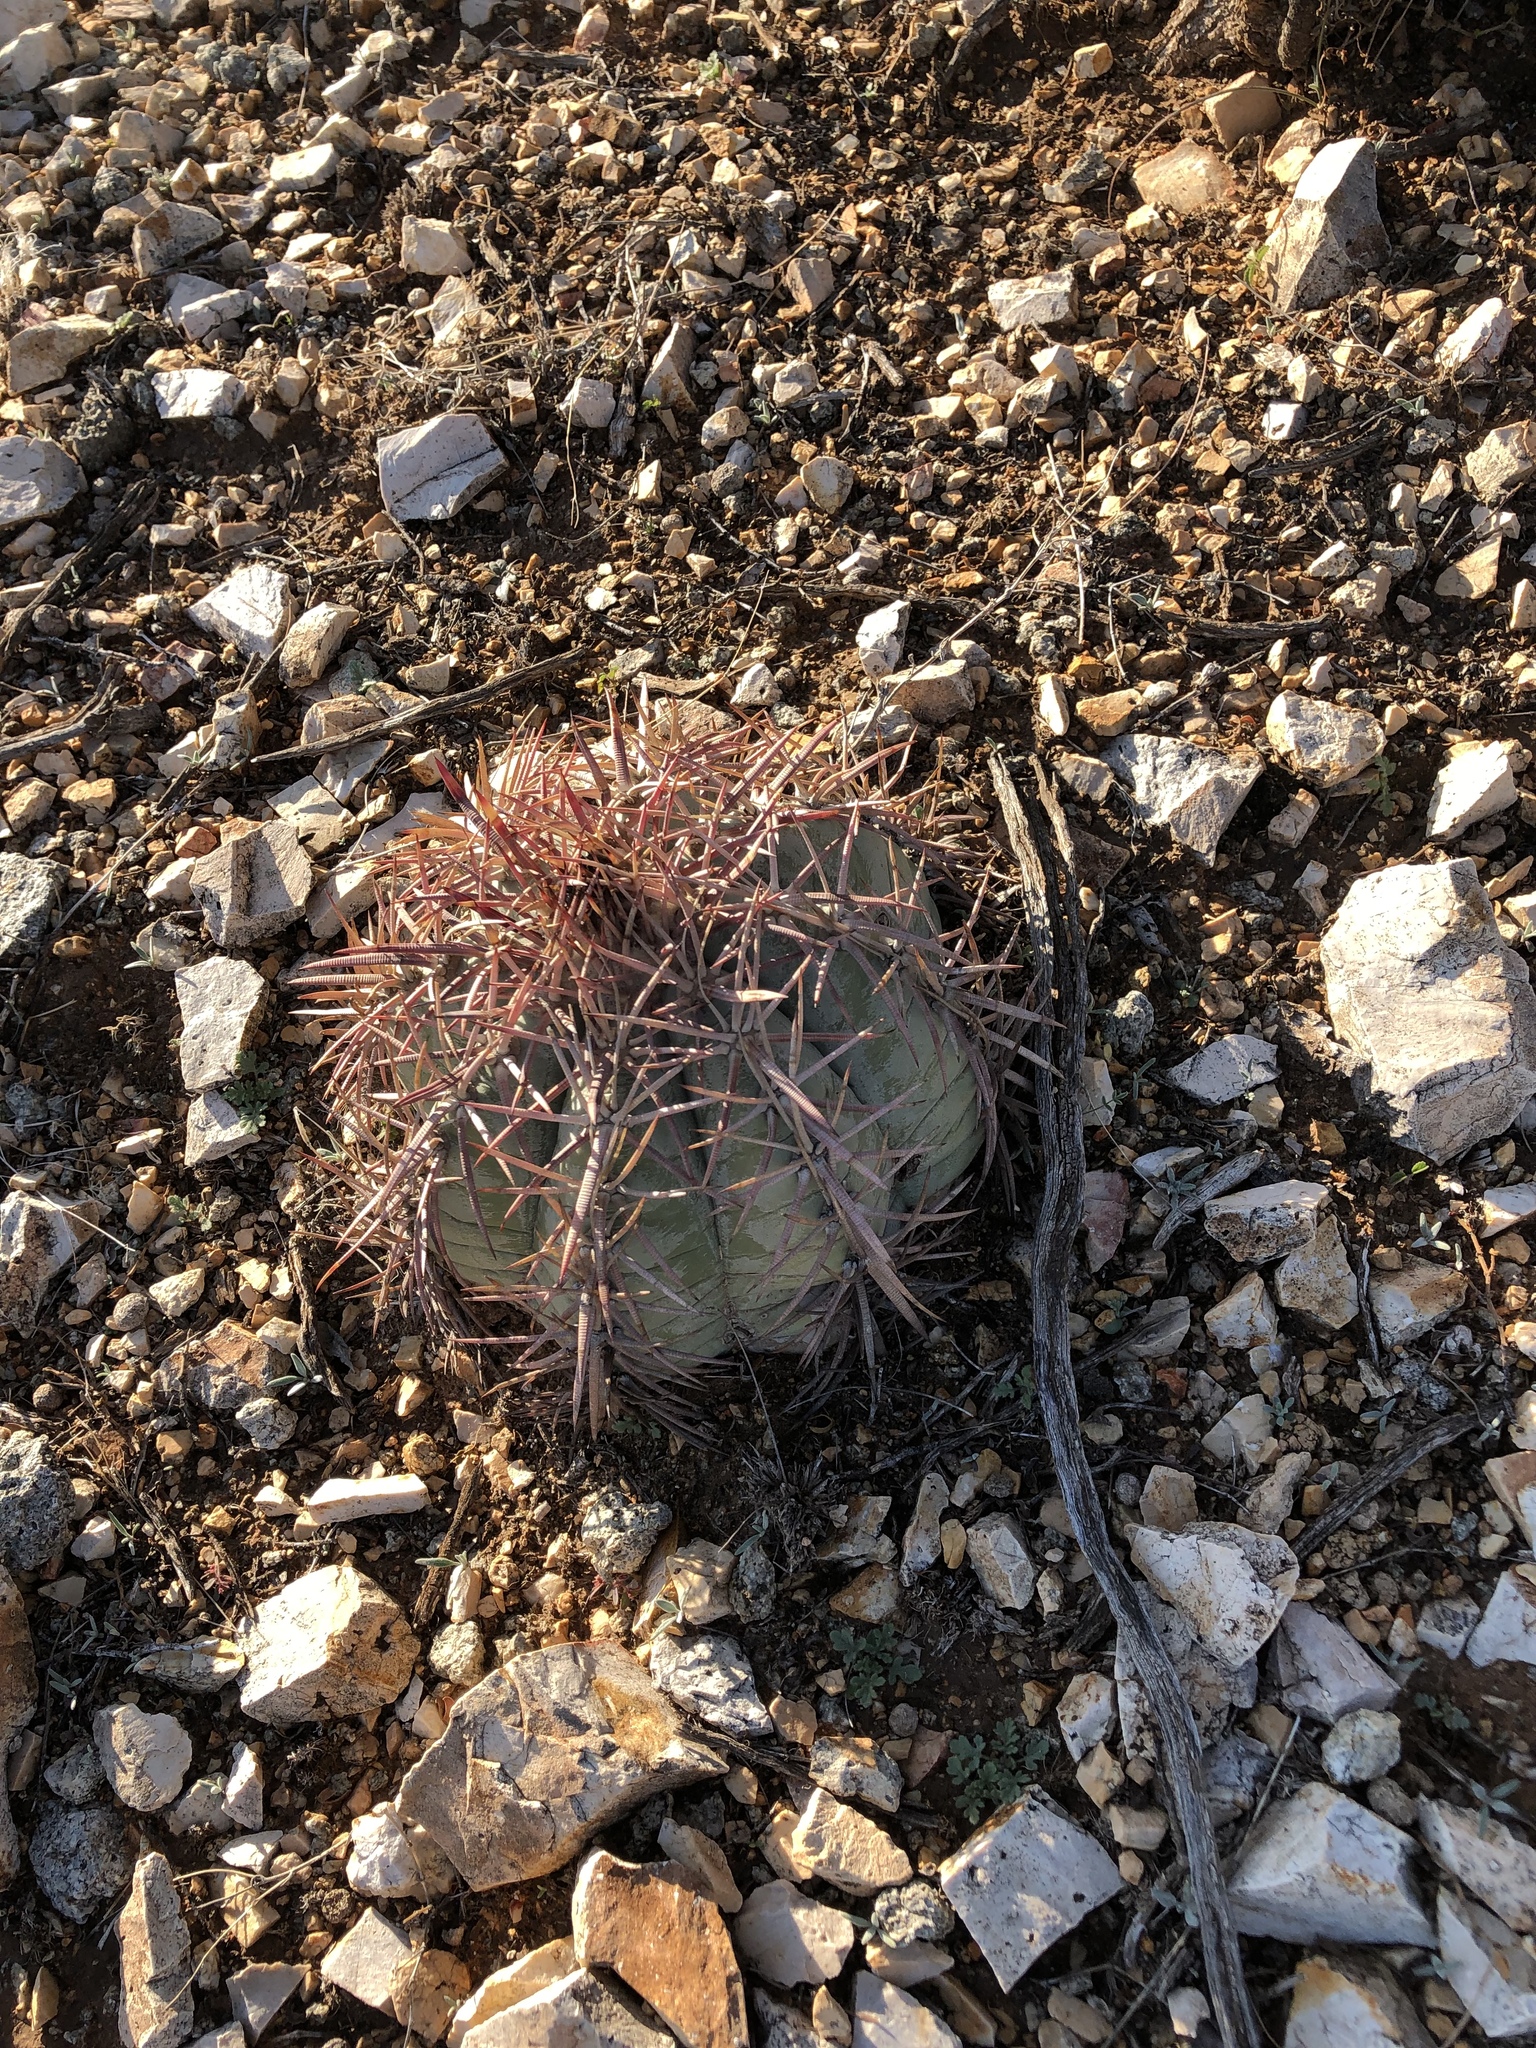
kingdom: Plantae
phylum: Tracheophyta
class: Magnoliopsida
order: Caryophyllales
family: Cactaceae
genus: Echinocactus
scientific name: Echinocactus horizonthalonius
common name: Devilshead
